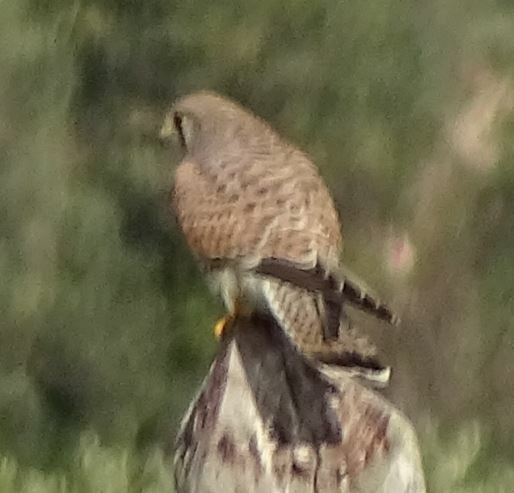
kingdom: Animalia
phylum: Chordata
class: Aves
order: Falconiformes
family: Falconidae
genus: Falco
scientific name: Falco tinnunculus
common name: Common kestrel
